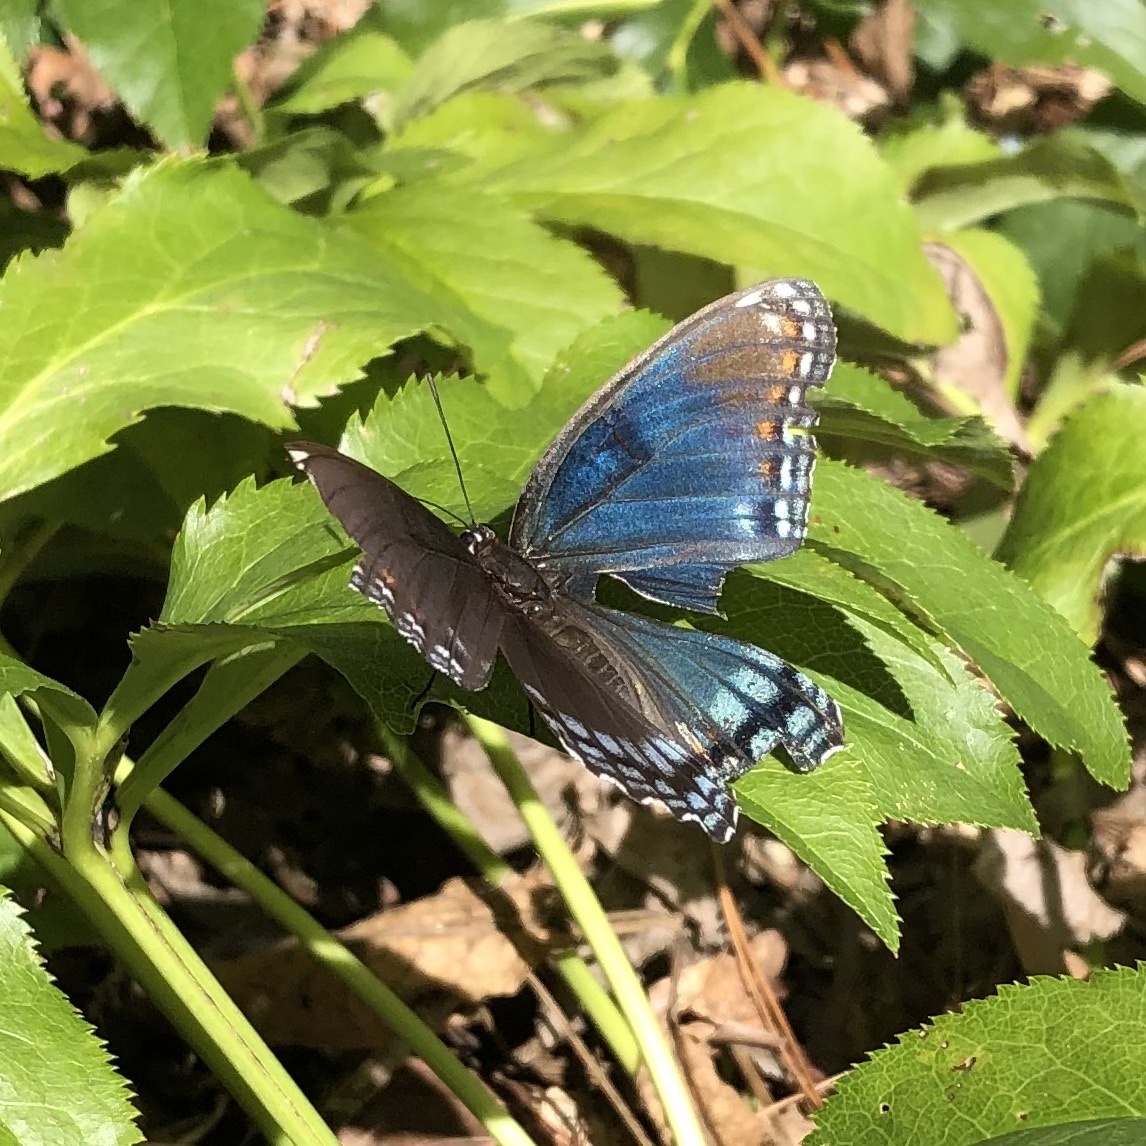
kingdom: Animalia
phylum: Arthropoda
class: Insecta
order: Lepidoptera
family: Nymphalidae
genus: Limenitis
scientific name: Limenitis astyanax
